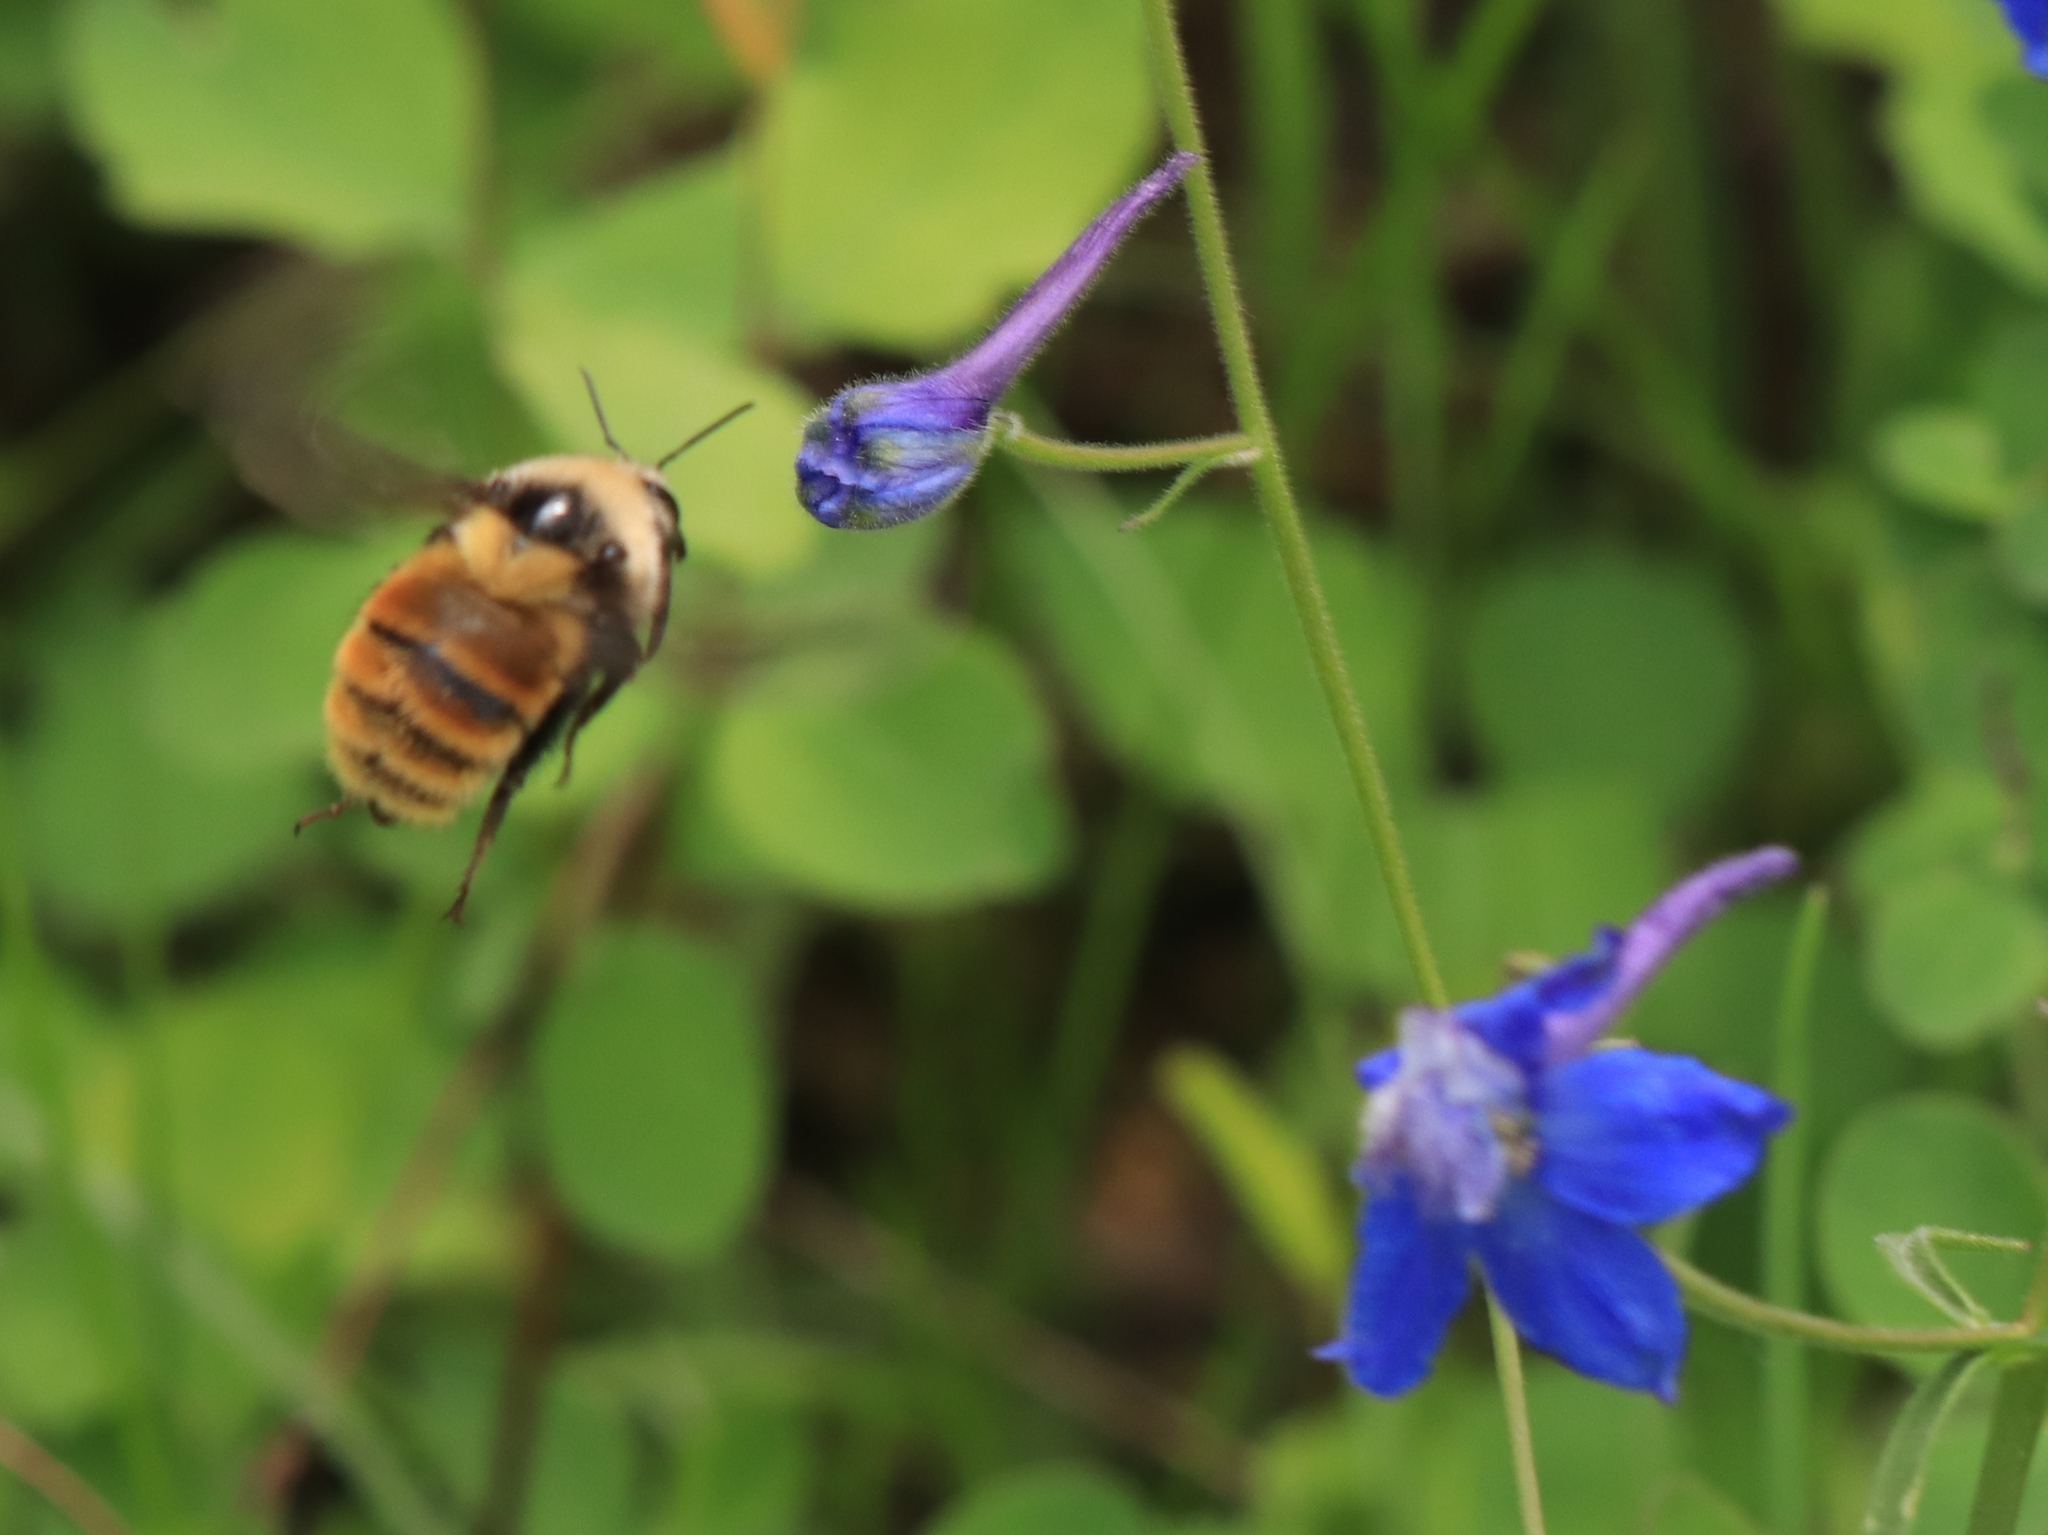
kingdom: Animalia
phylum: Arthropoda
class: Insecta
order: Hymenoptera
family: Apidae
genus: Bombus
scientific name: Bombus appositus
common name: White-shouldered bumble bee
